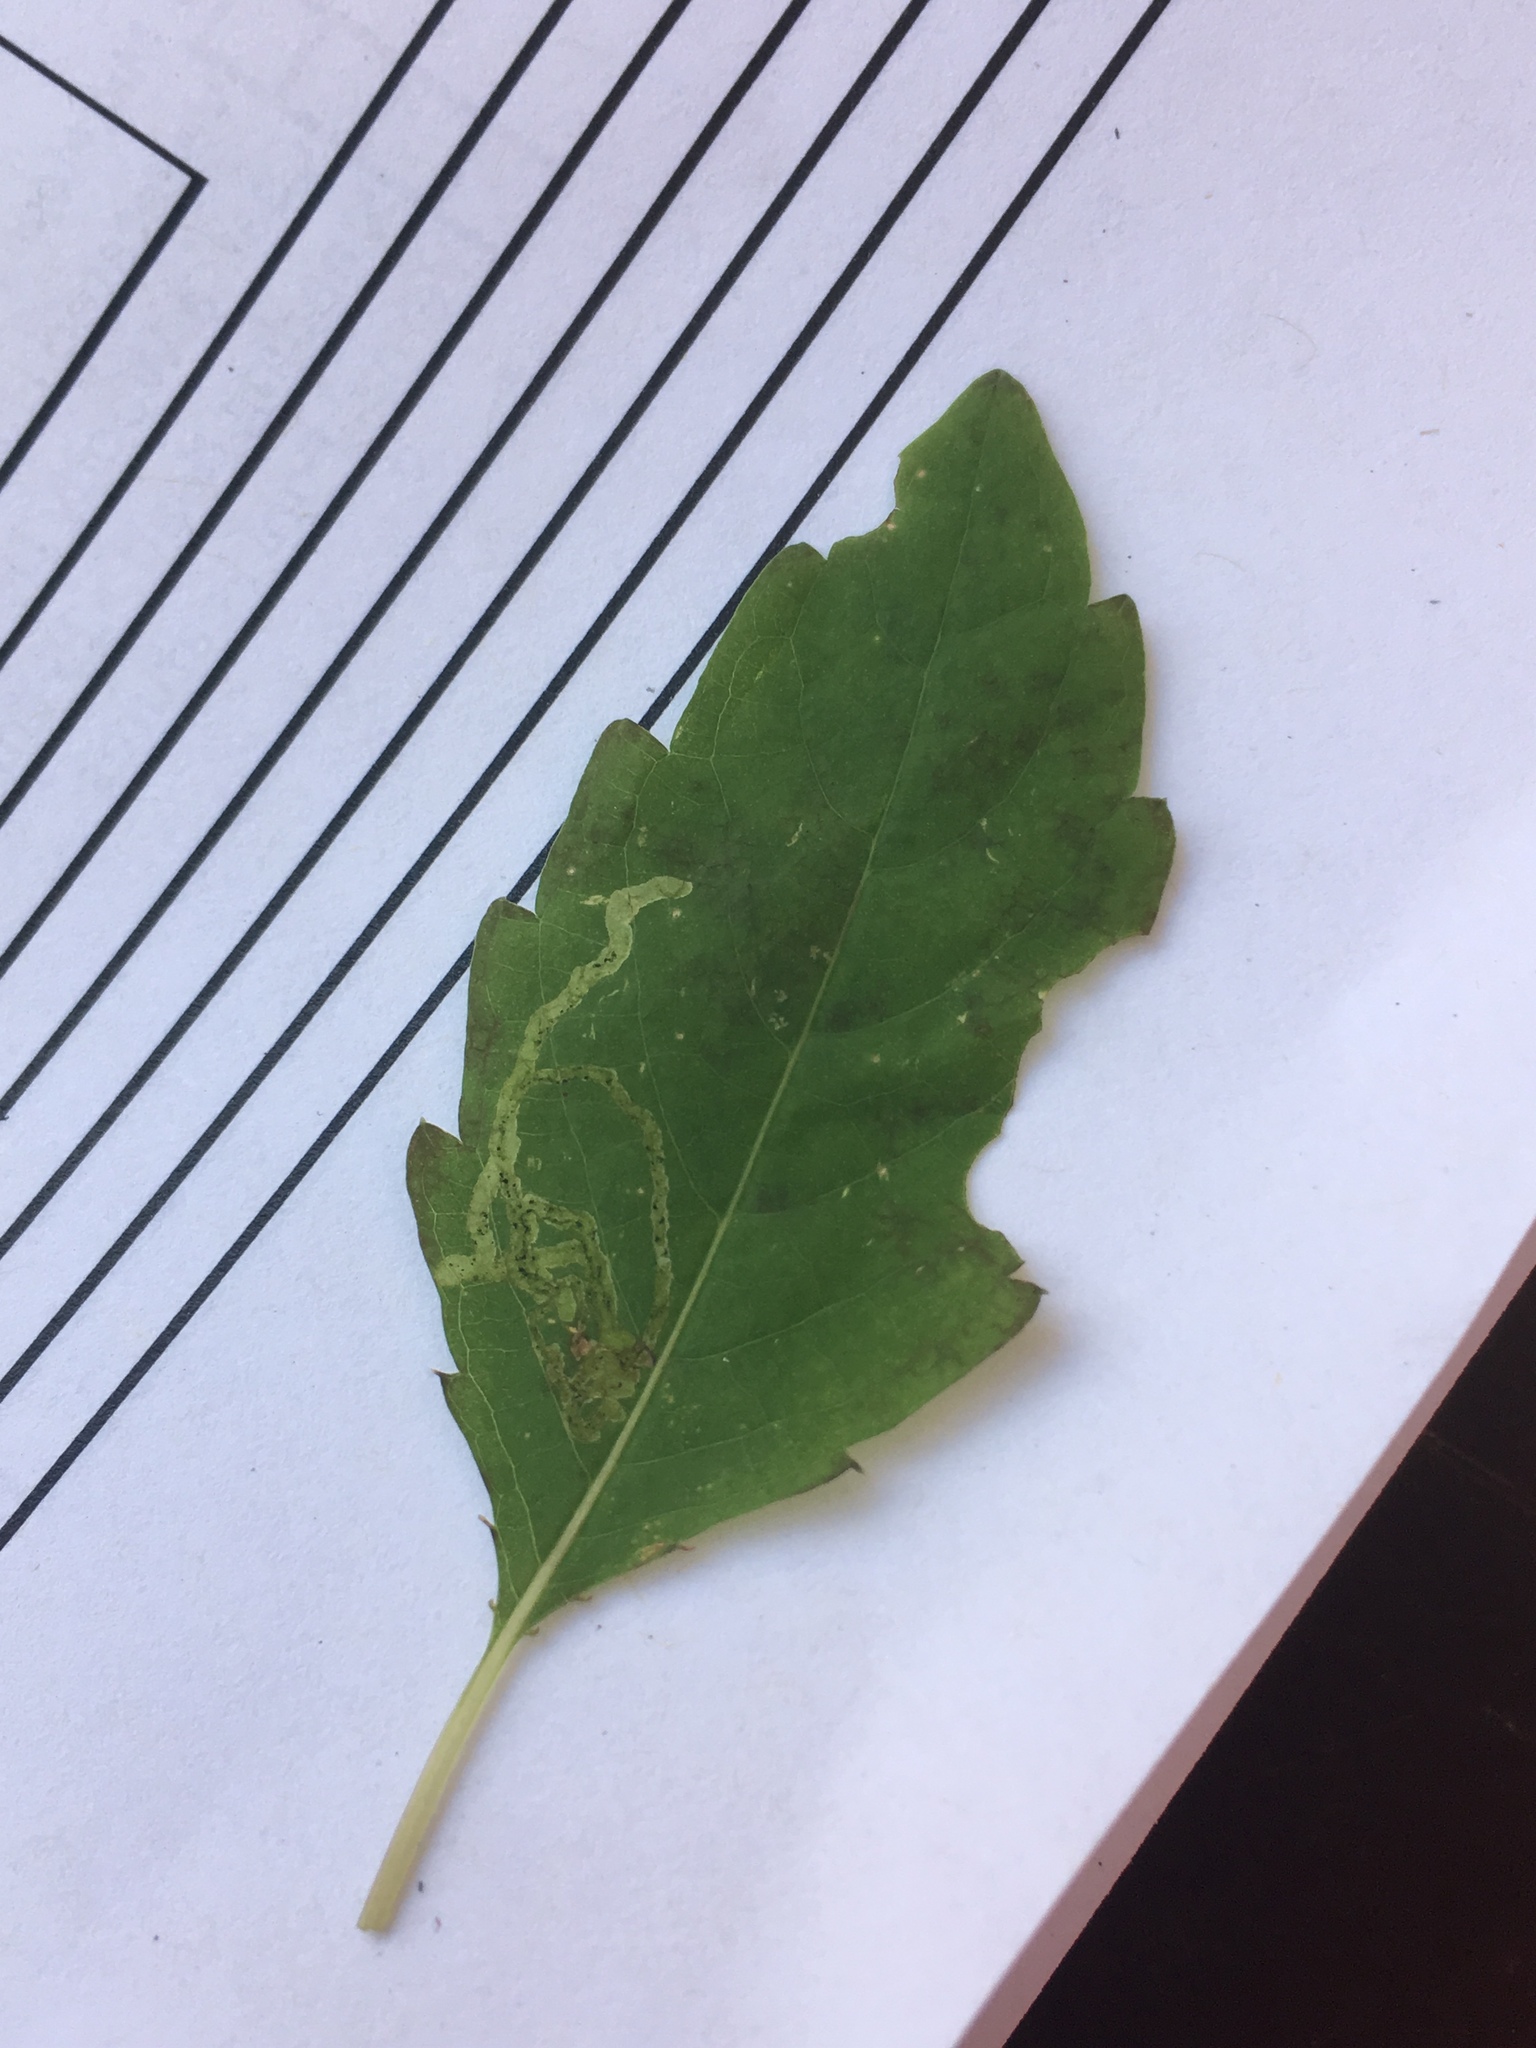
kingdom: Plantae
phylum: Tracheophyta
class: Magnoliopsida
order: Ericales
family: Balsaminaceae
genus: Impatiens
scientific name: Impatiens capensis
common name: Orange balsam
